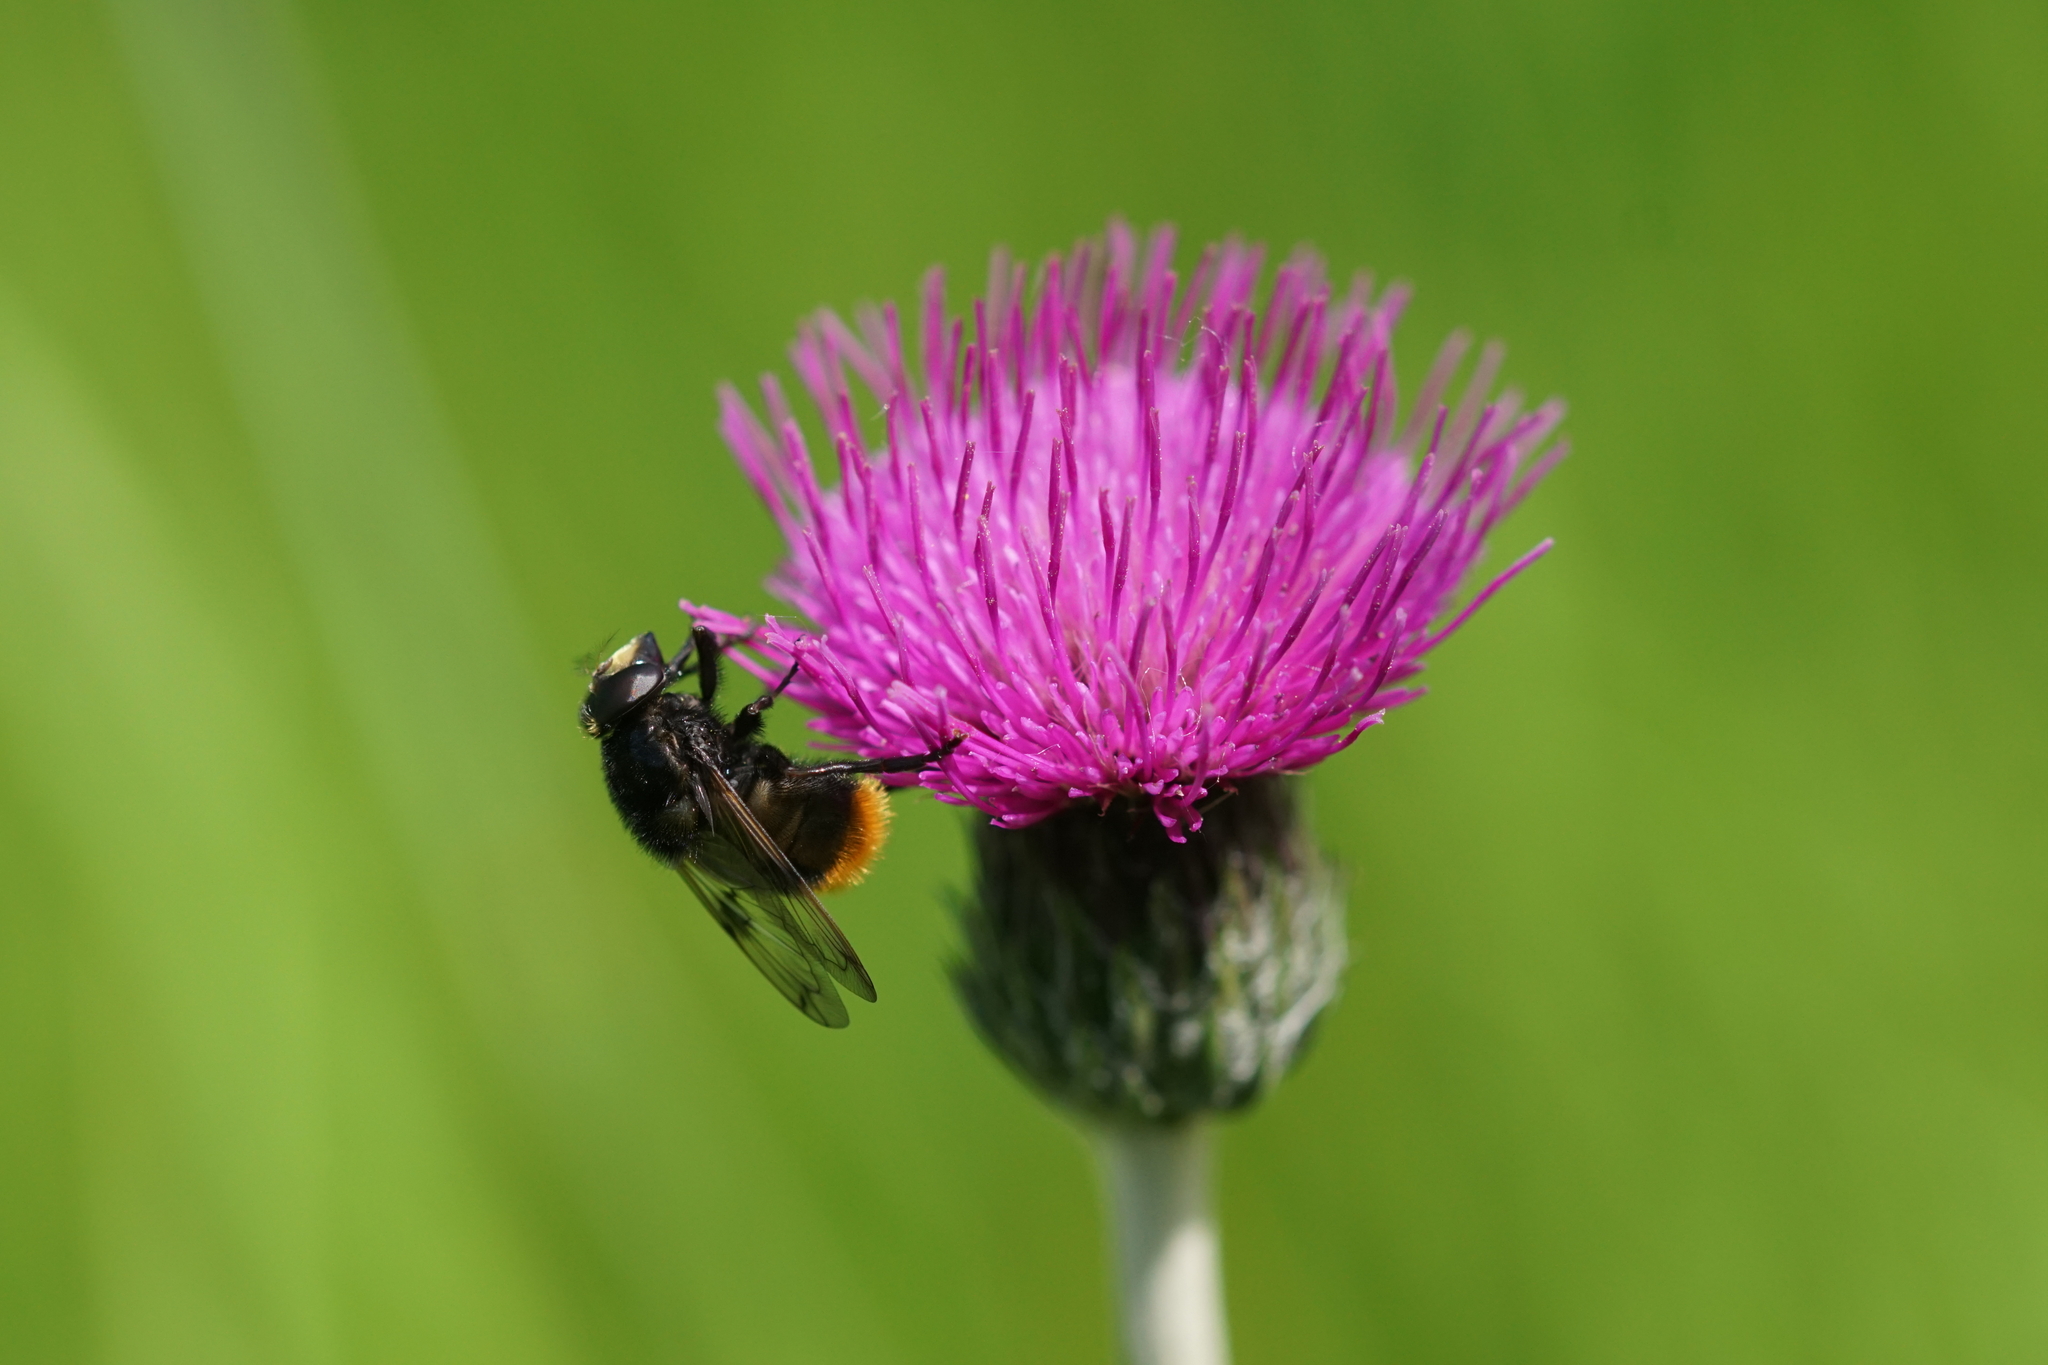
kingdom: Animalia
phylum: Arthropoda
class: Insecta
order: Diptera
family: Syrphidae
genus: Volucella
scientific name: Volucella bombylans
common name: Bumble bee hover fly
